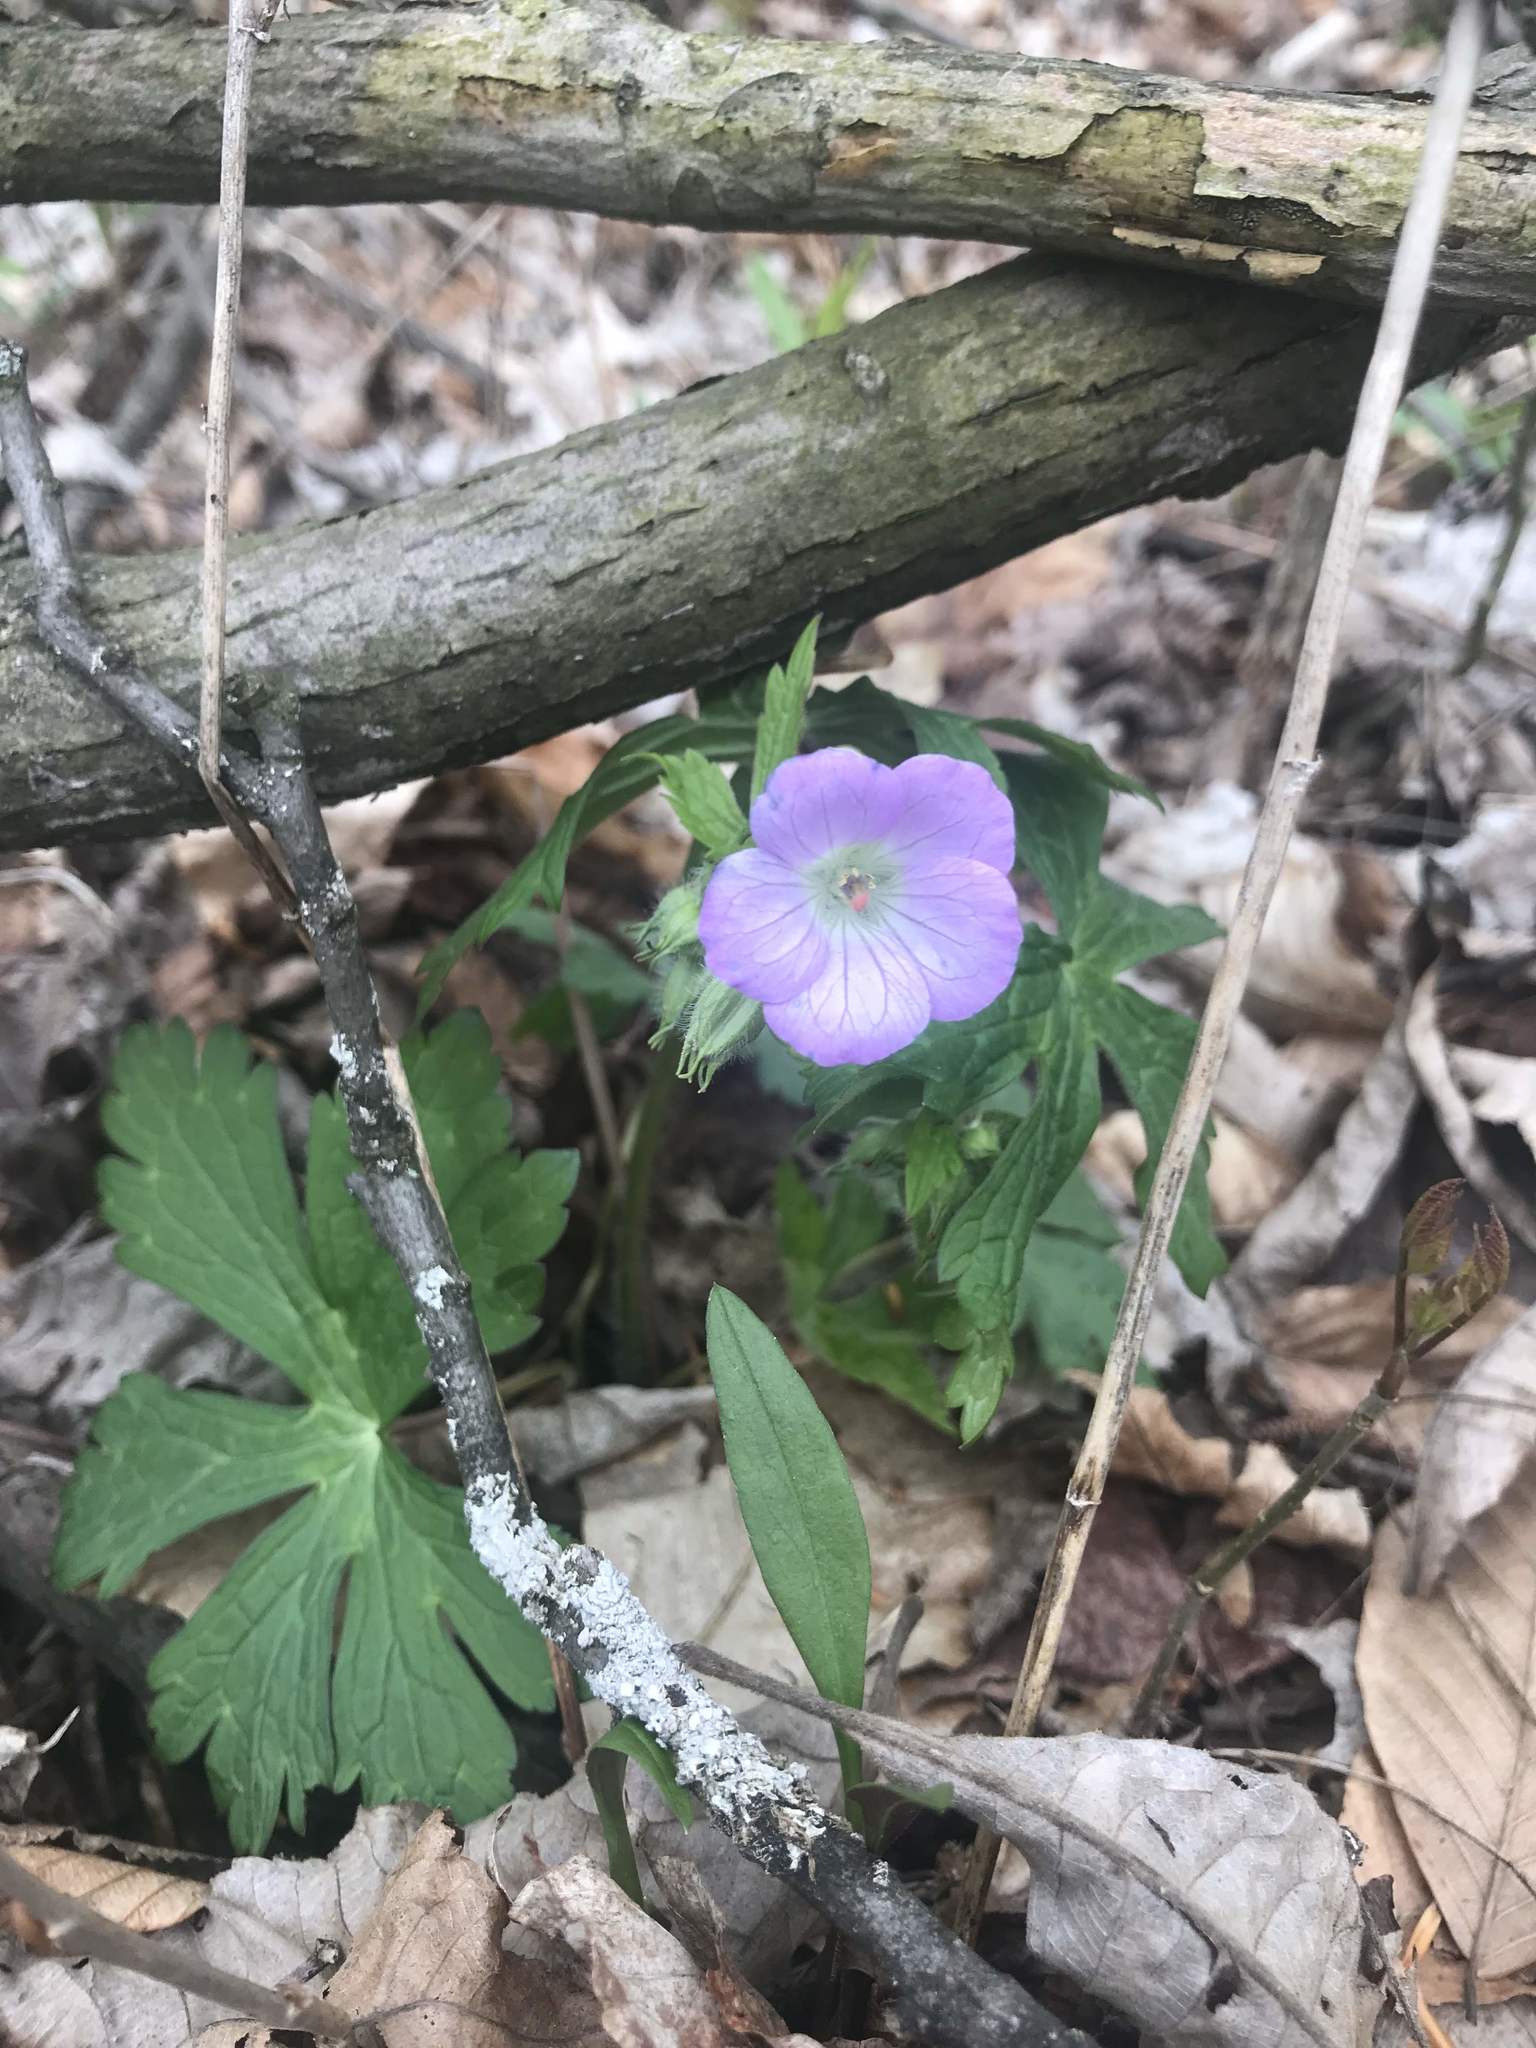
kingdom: Plantae
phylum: Tracheophyta
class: Magnoliopsida
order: Geraniales
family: Geraniaceae
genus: Geranium
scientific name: Geranium maculatum
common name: Spotted geranium
